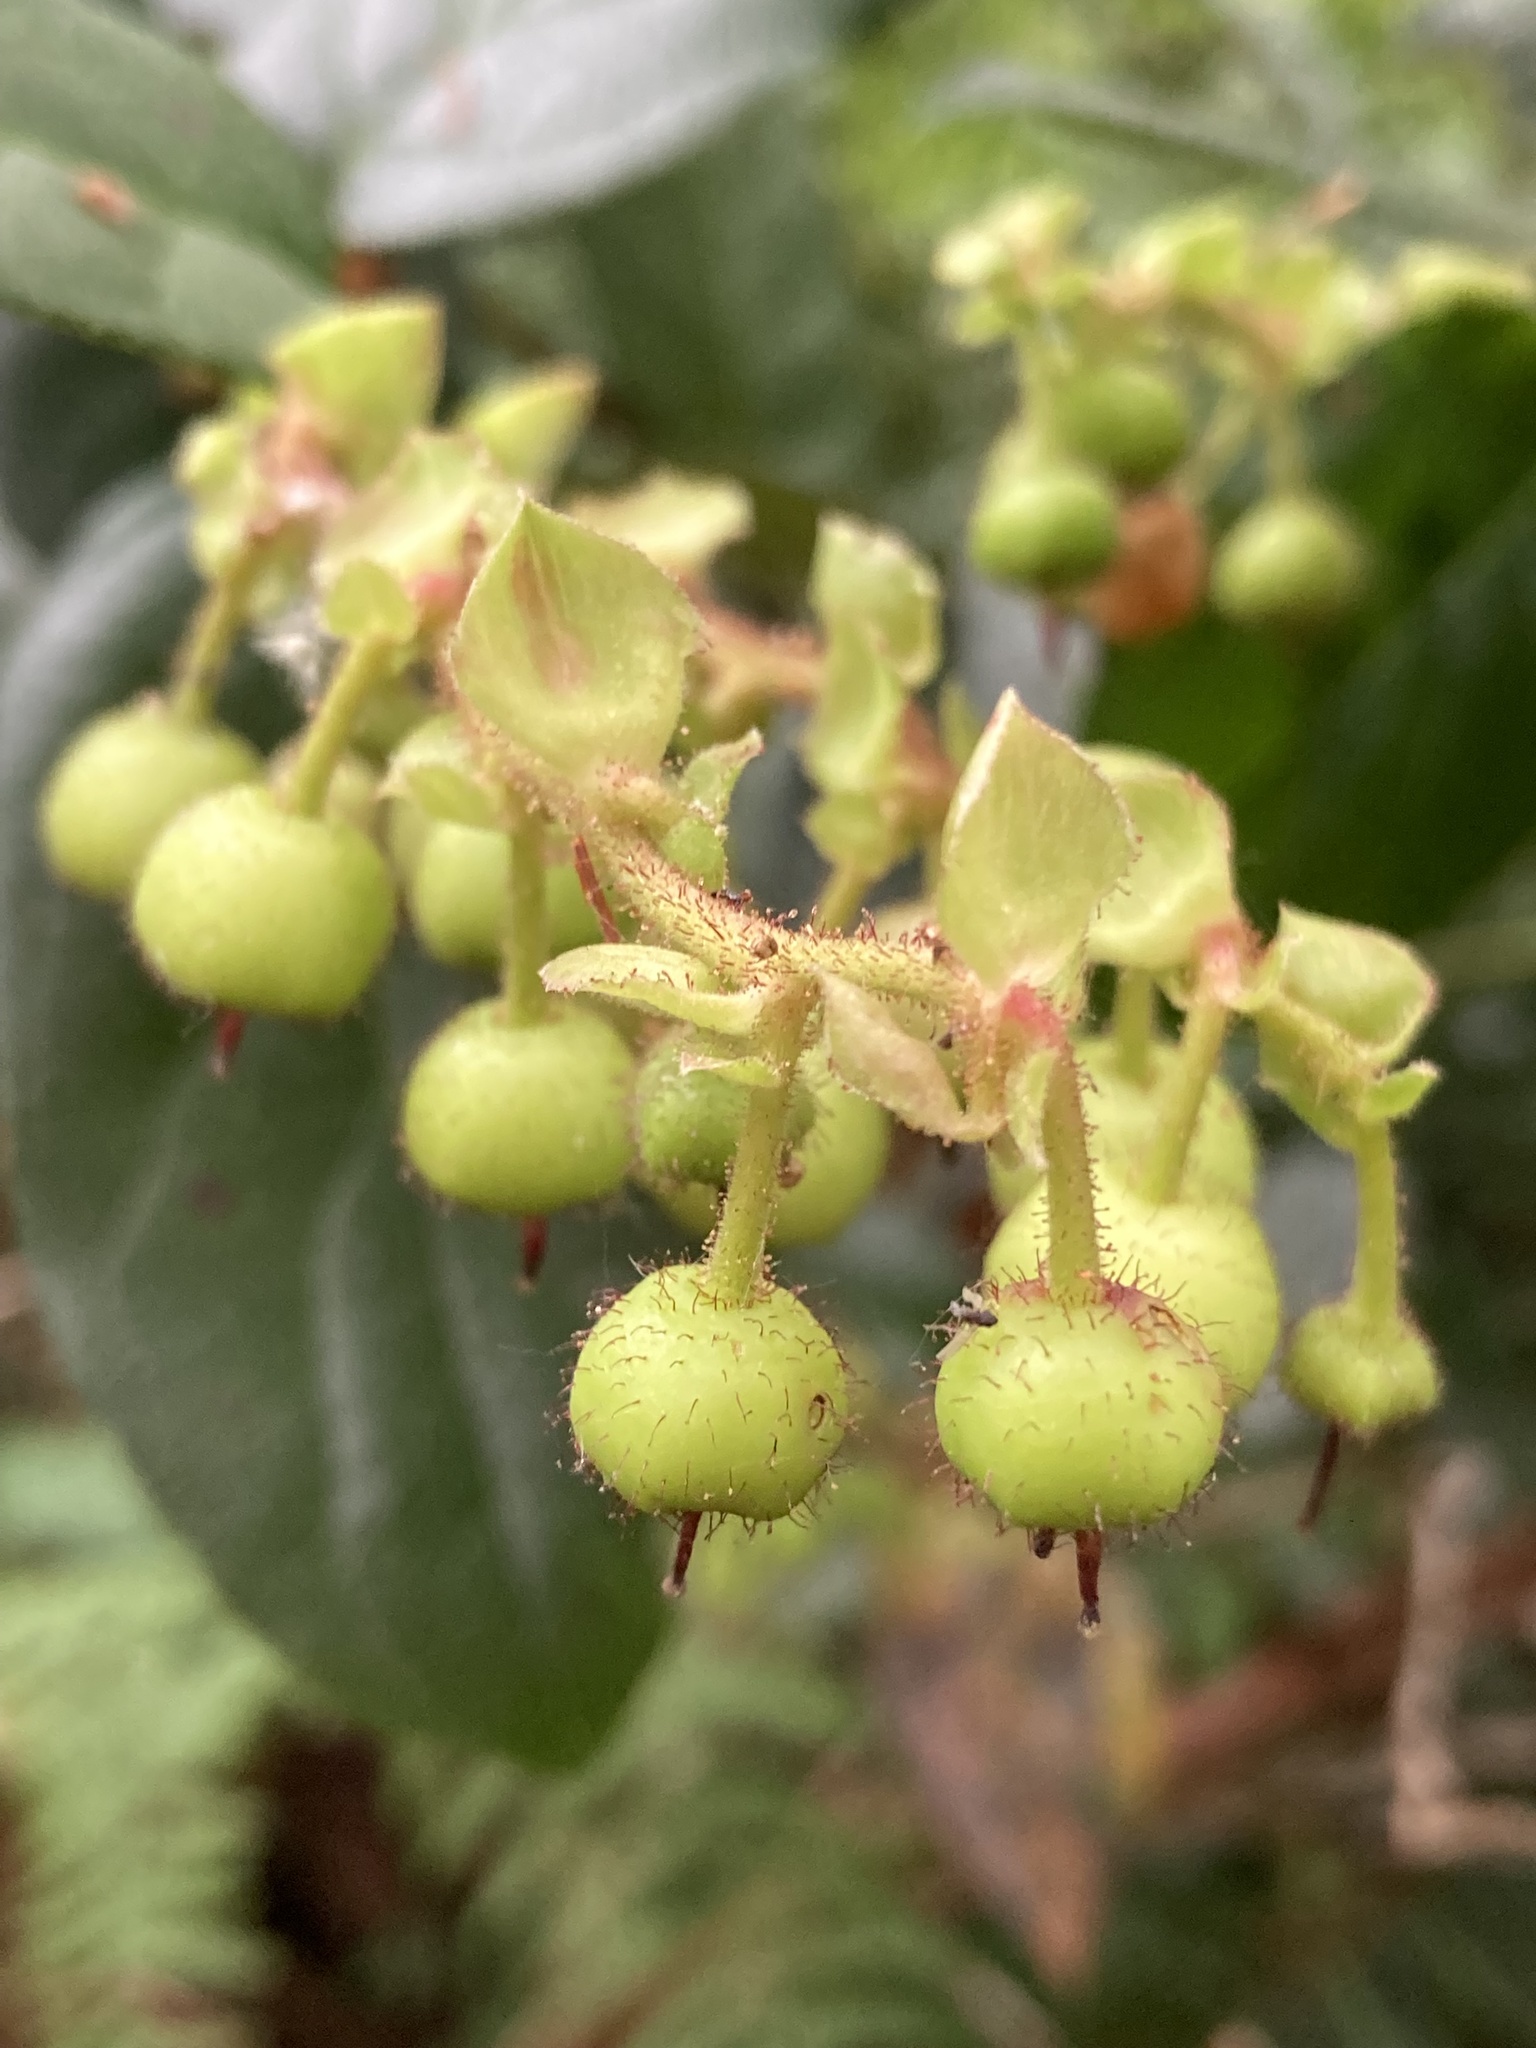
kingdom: Plantae
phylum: Tracheophyta
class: Magnoliopsida
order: Ericales
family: Ericaceae
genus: Gaultheria
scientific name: Gaultheria shallon
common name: Shallon
